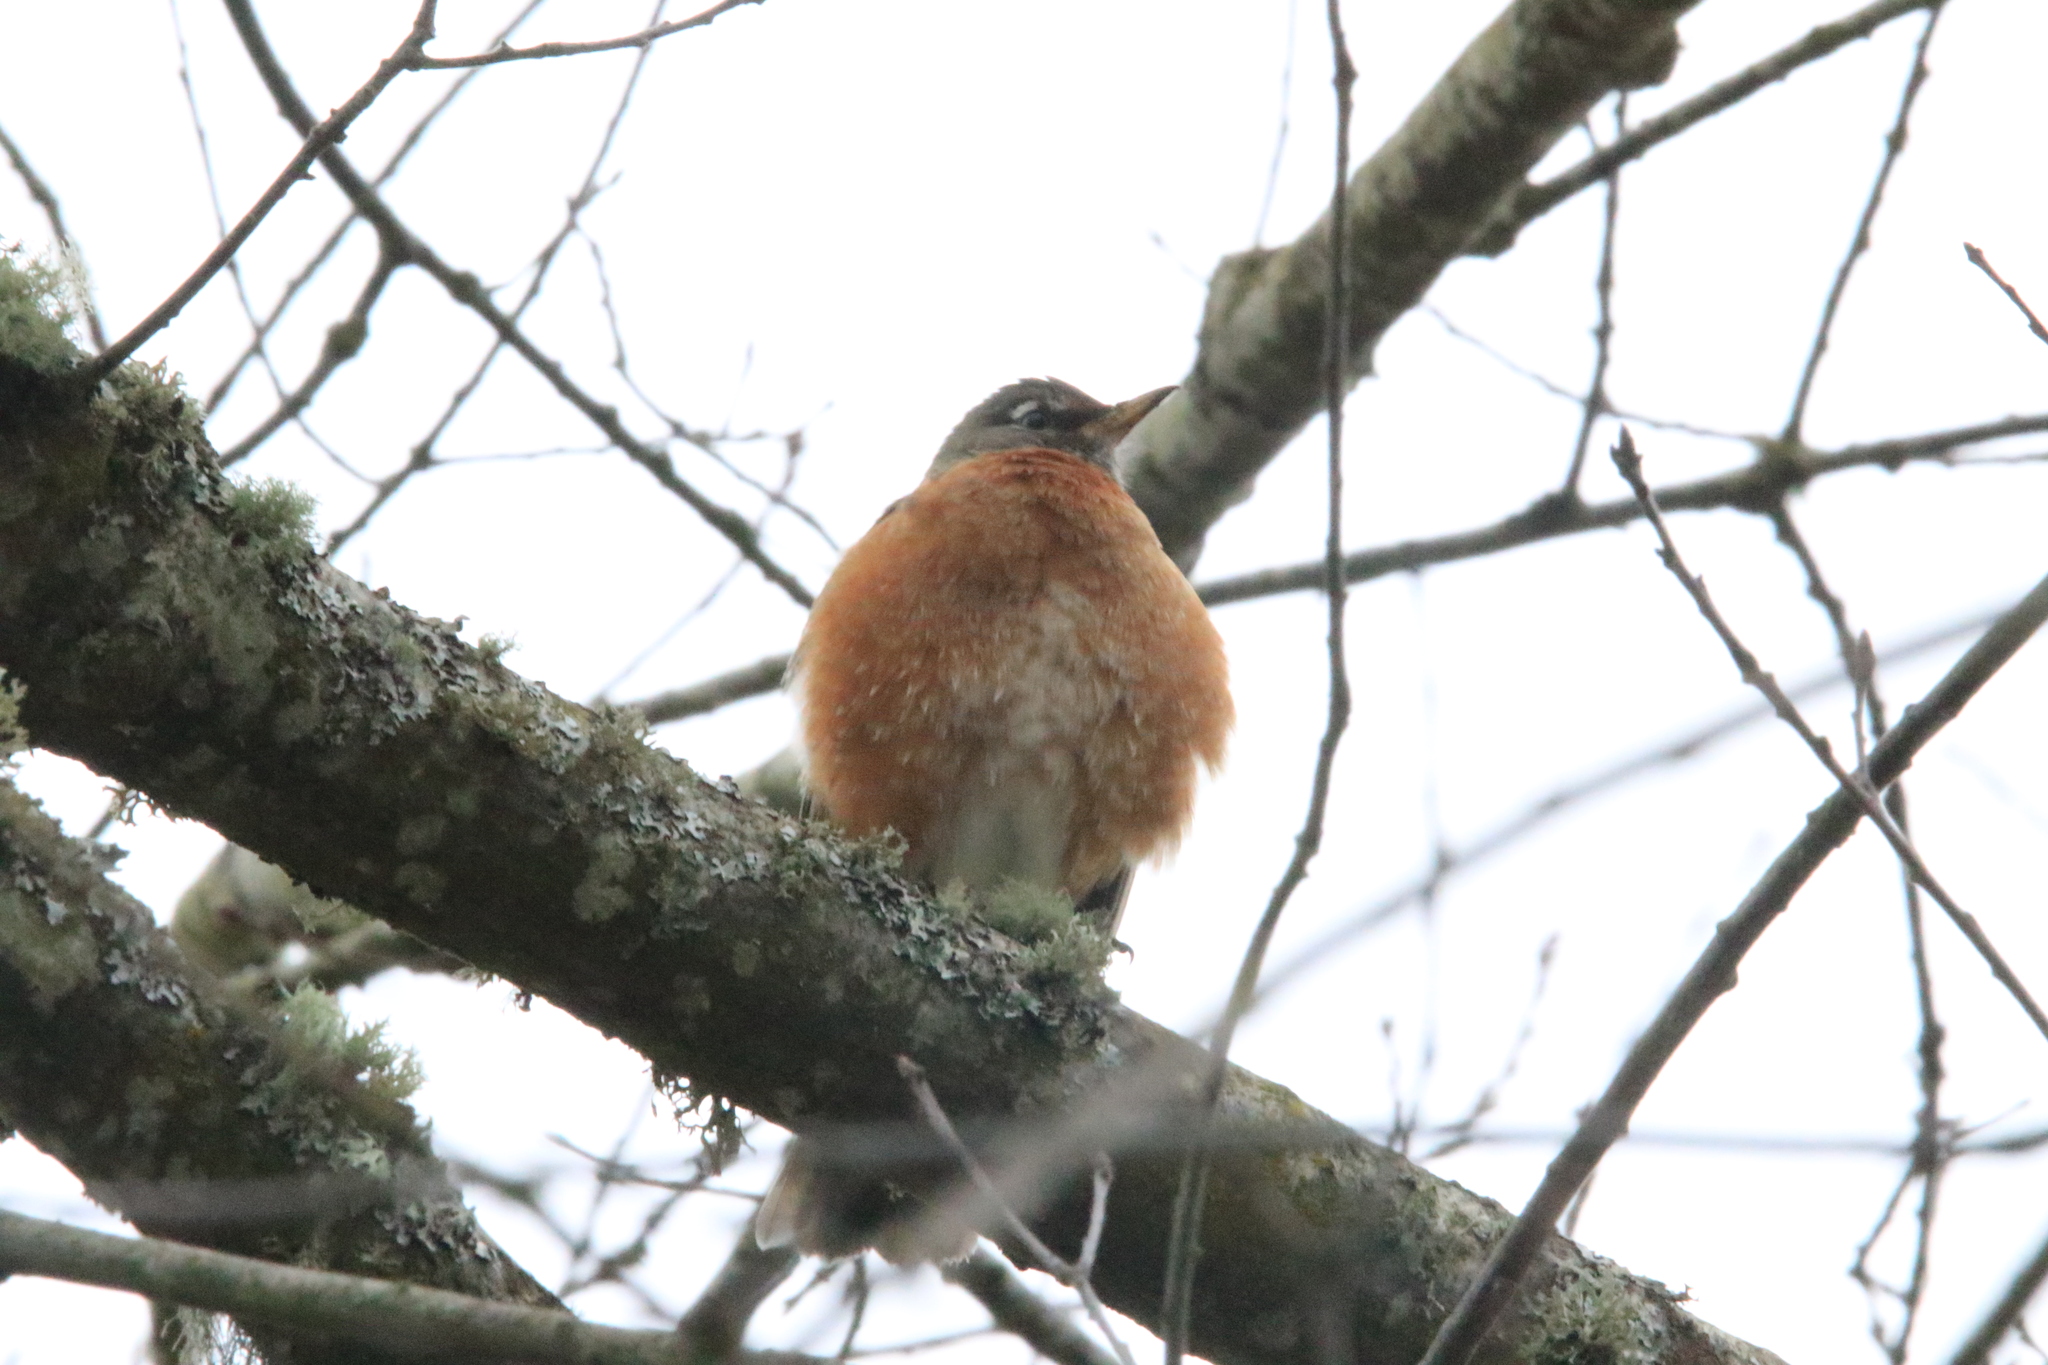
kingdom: Animalia
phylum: Chordata
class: Aves
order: Passeriformes
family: Turdidae
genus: Turdus
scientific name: Turdus migratorius
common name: American robin
